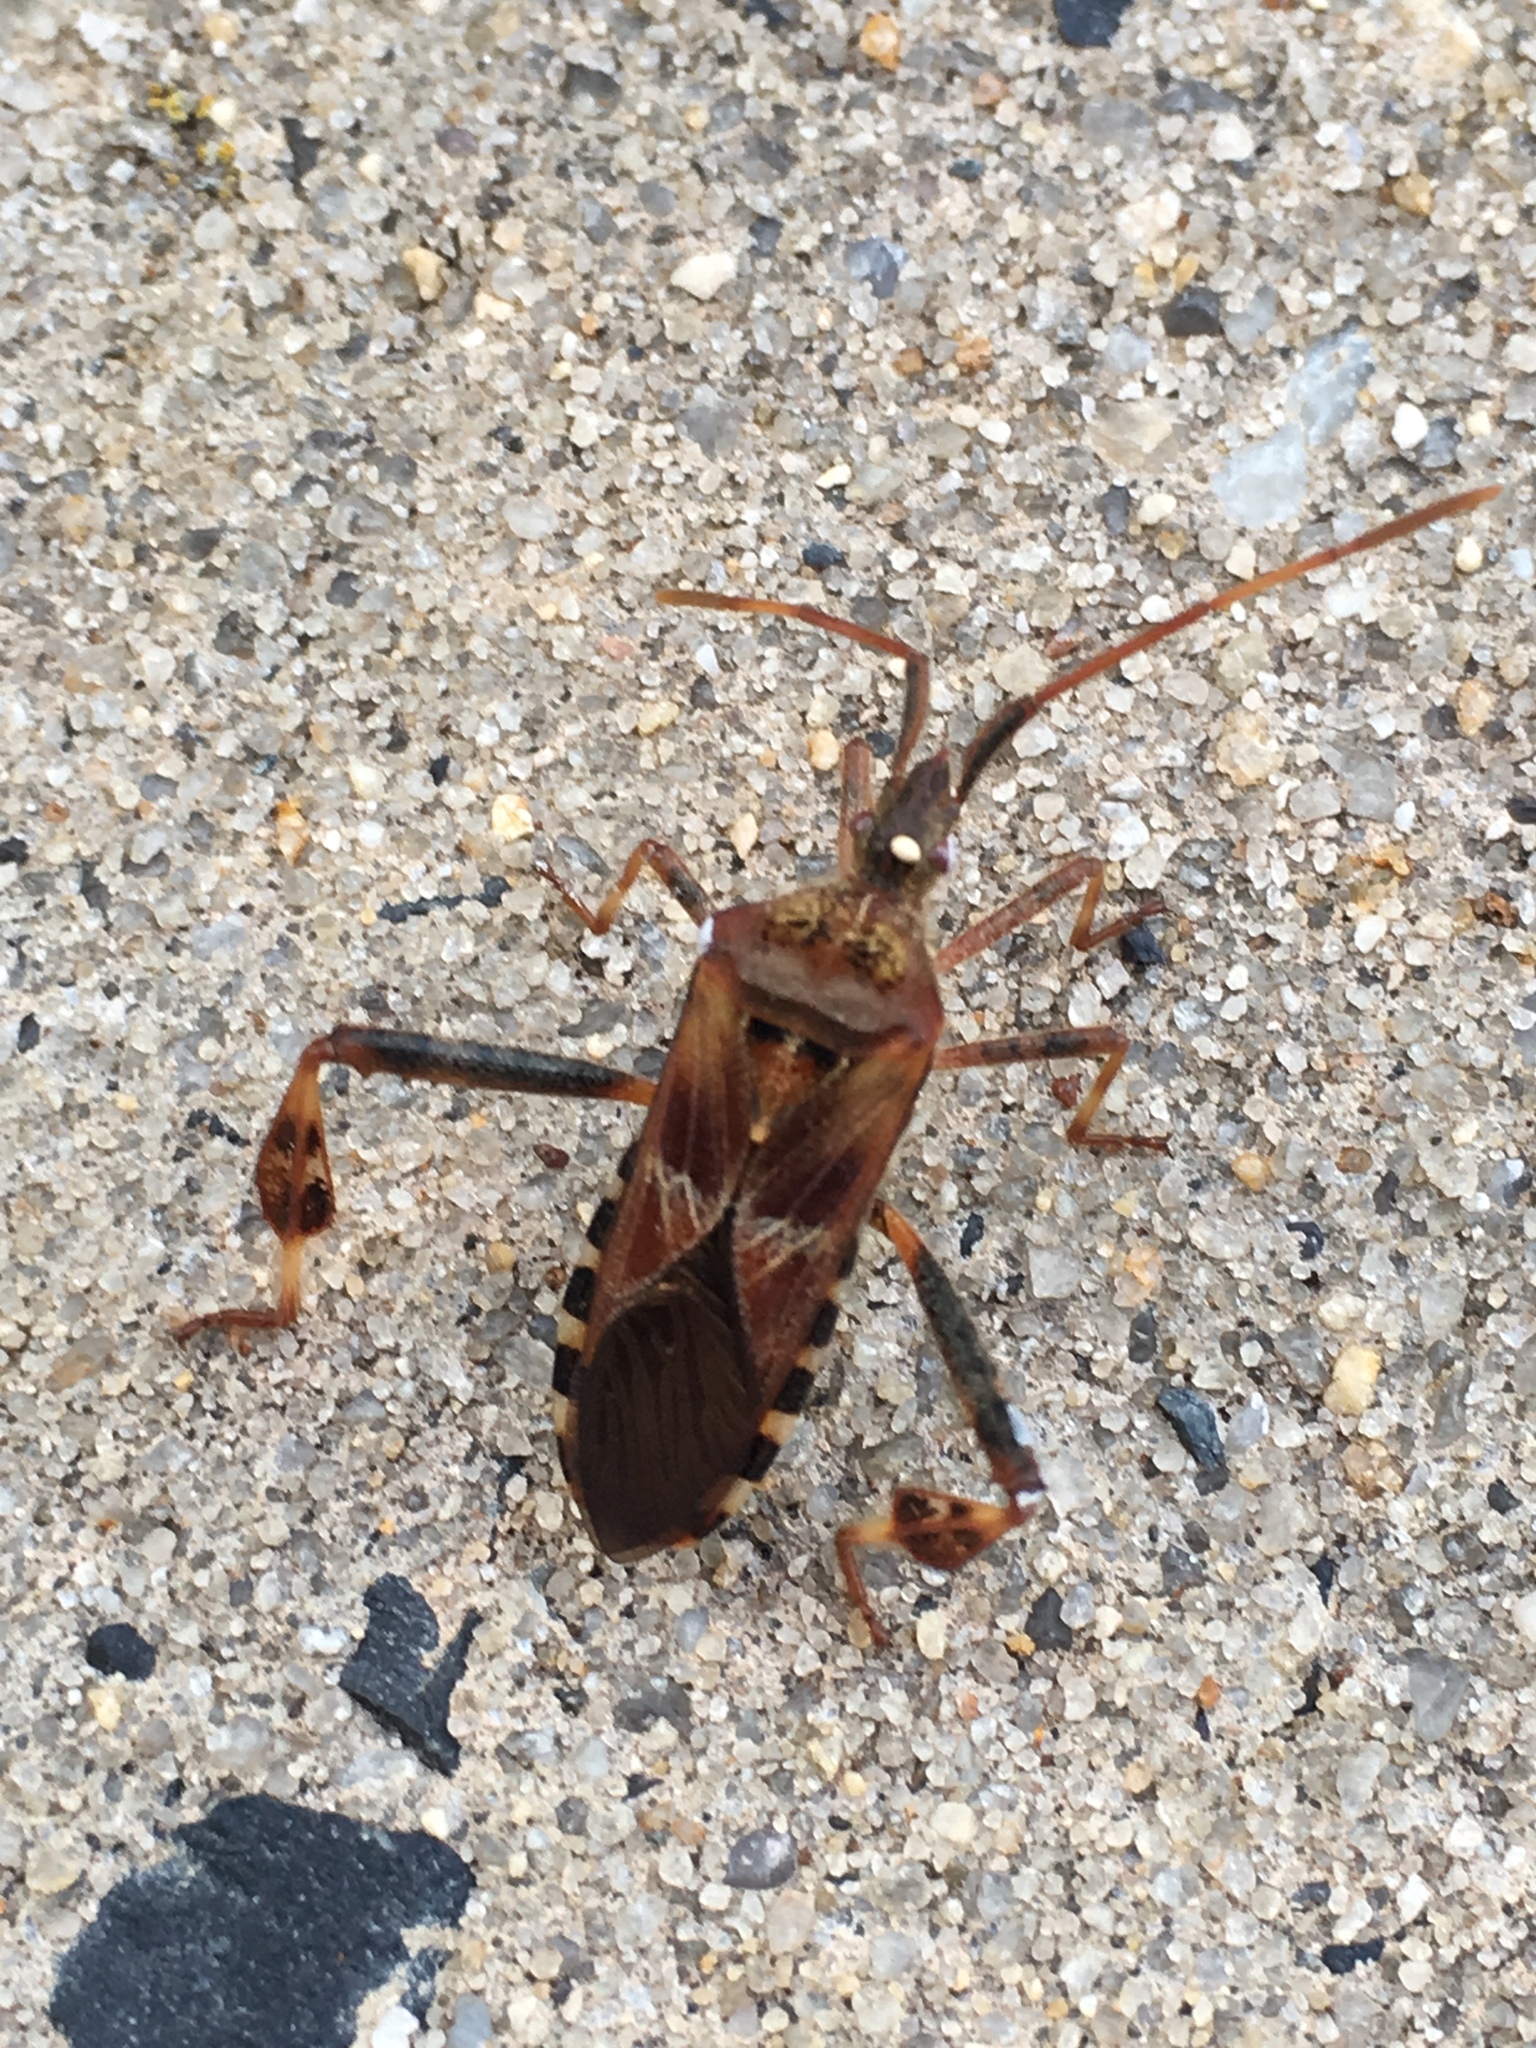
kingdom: Animalia
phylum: Arthropoda
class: Insecta
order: Hemiptera
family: Coreidae
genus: Leptoglossus
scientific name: Leptoglossus occidentalis
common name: Western conifer-seed bug
